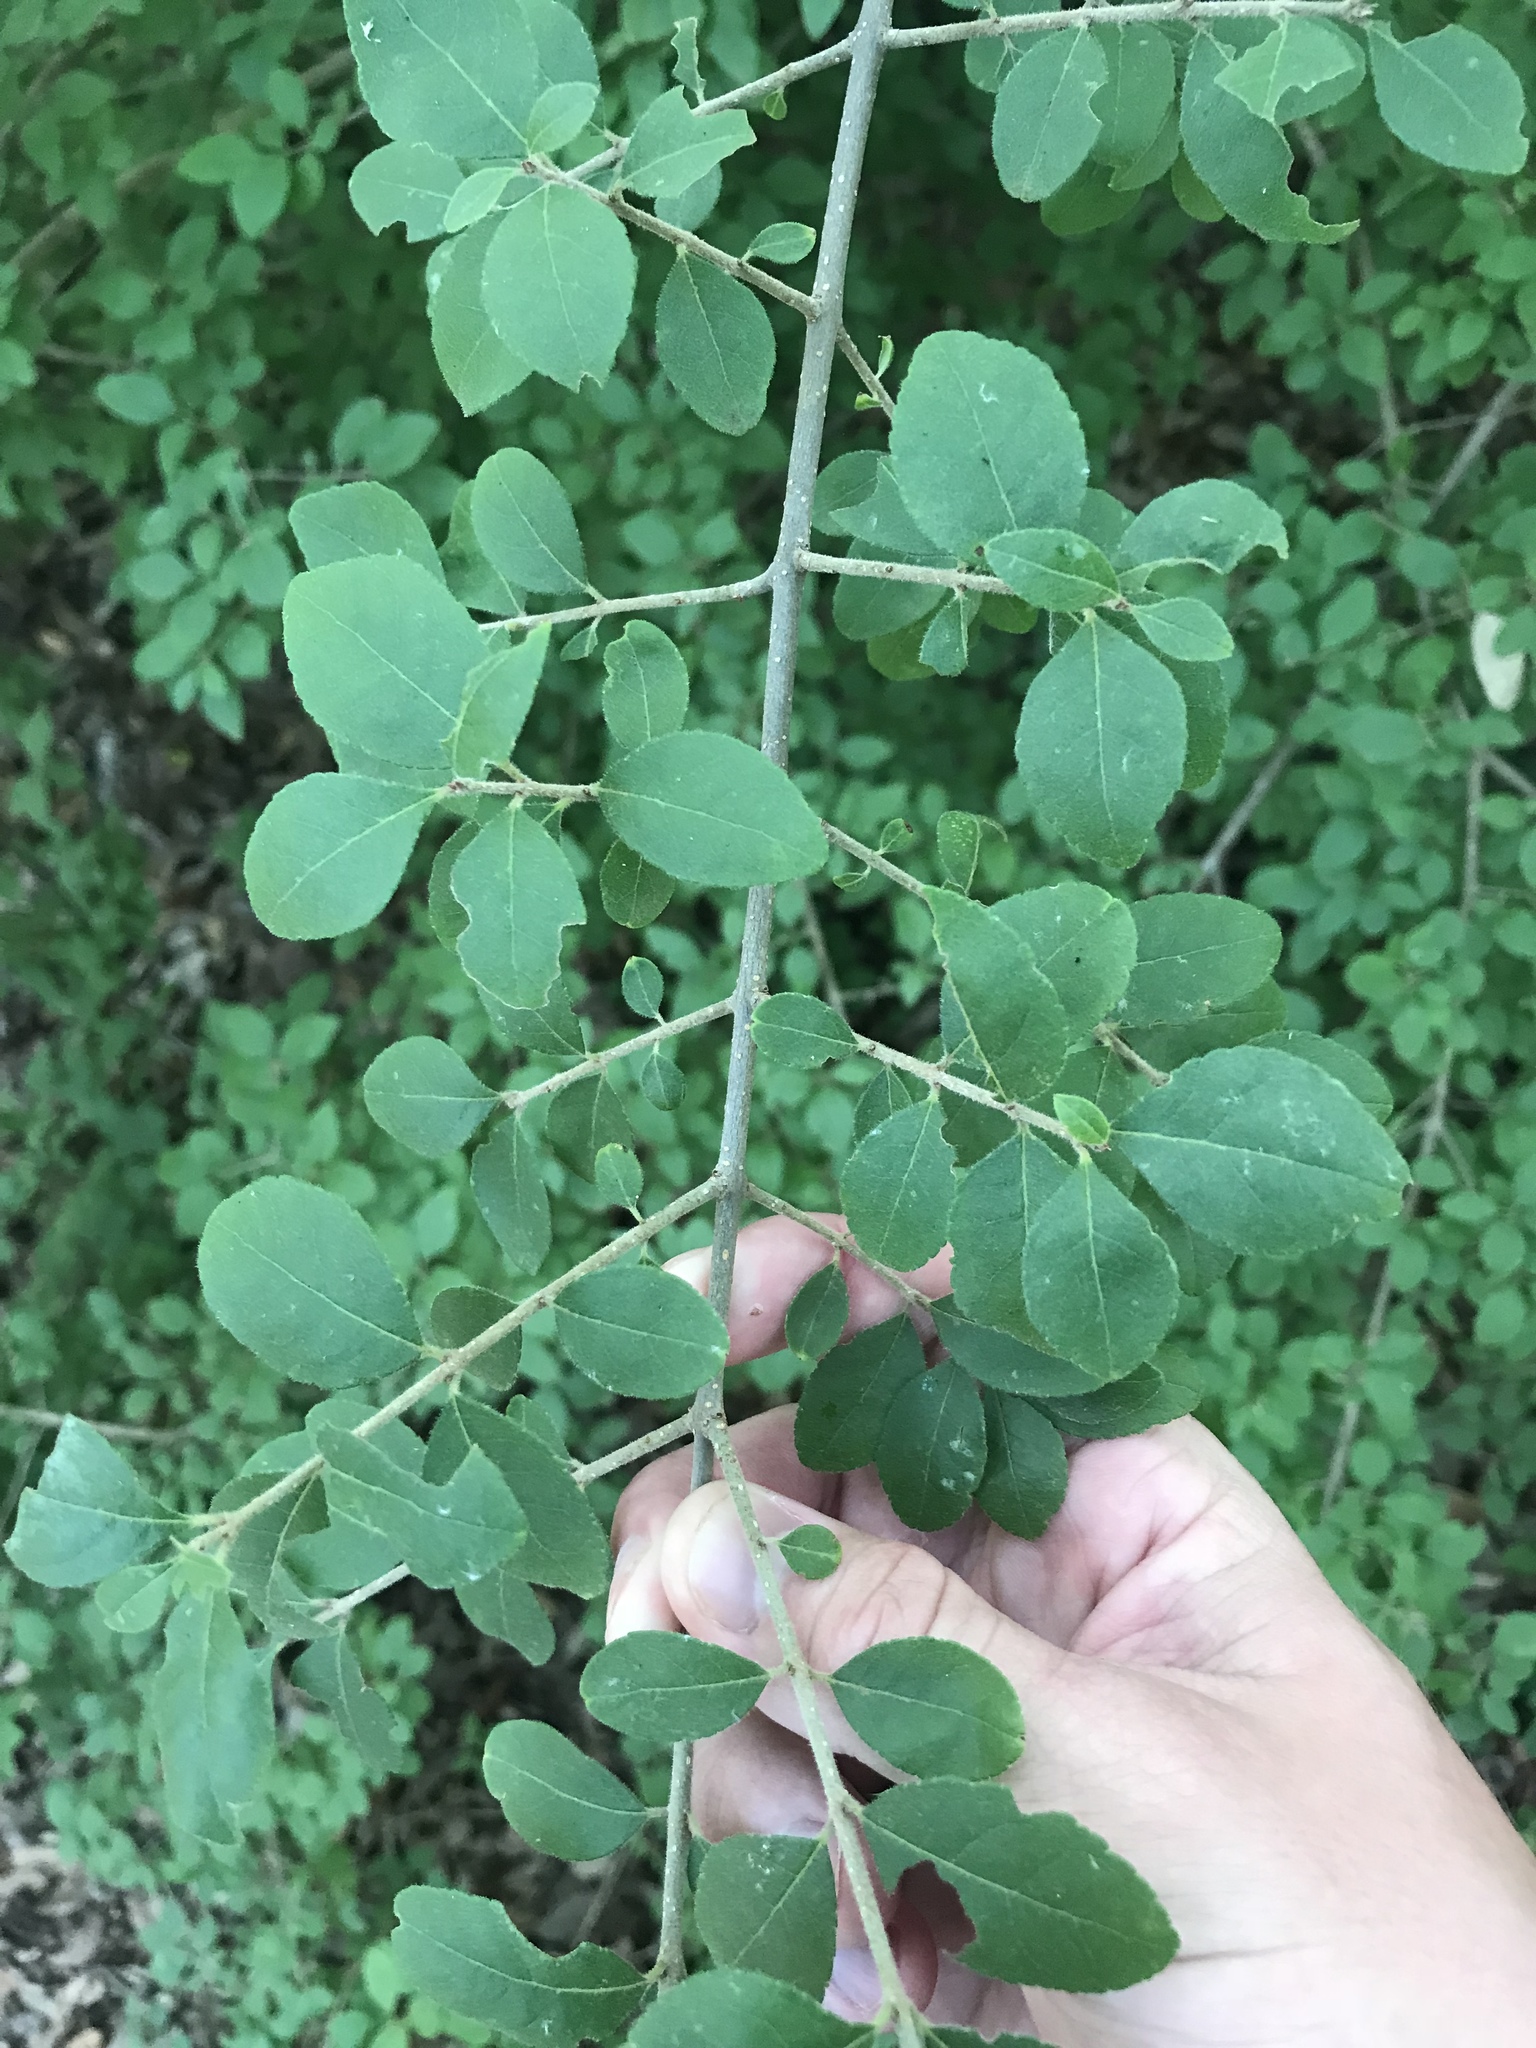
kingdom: Plantae
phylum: Tracheophyta
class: Magnoliopsida
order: Lamiales
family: Oleaceae
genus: Forestiera
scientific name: Forestiera pubescens
